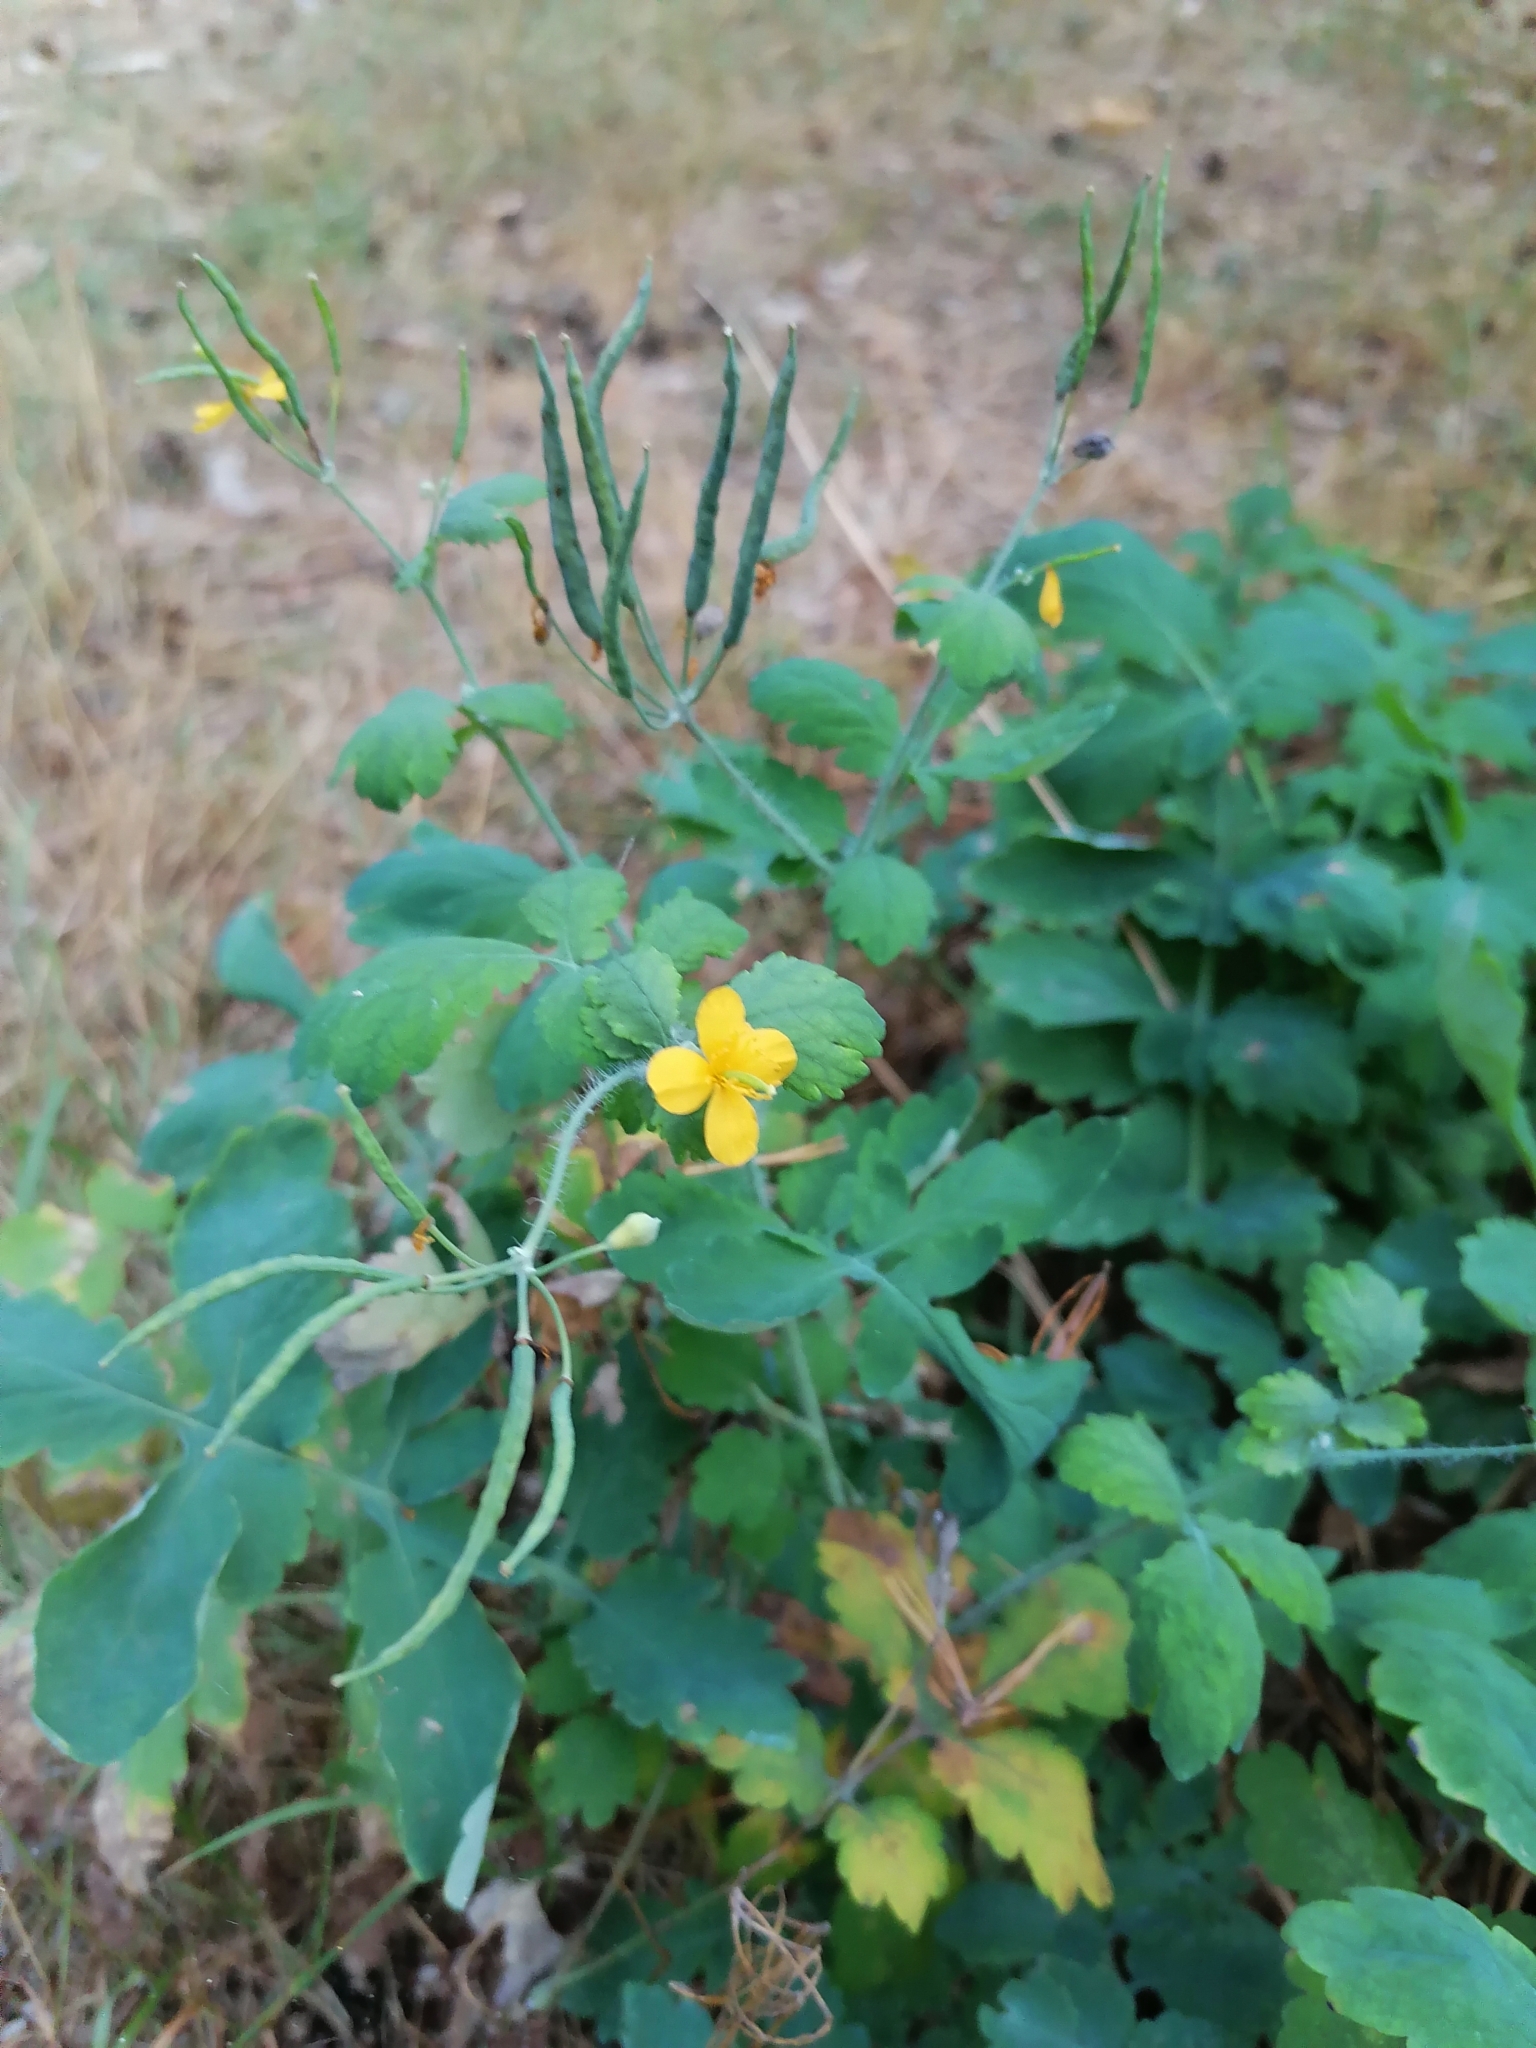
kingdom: Plantae
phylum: Tracheophyta
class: Magnoliopsida
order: Ranunculales
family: Papaveraceae
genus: Chelidonium
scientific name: Chelidonium majus
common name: Greater celandine
